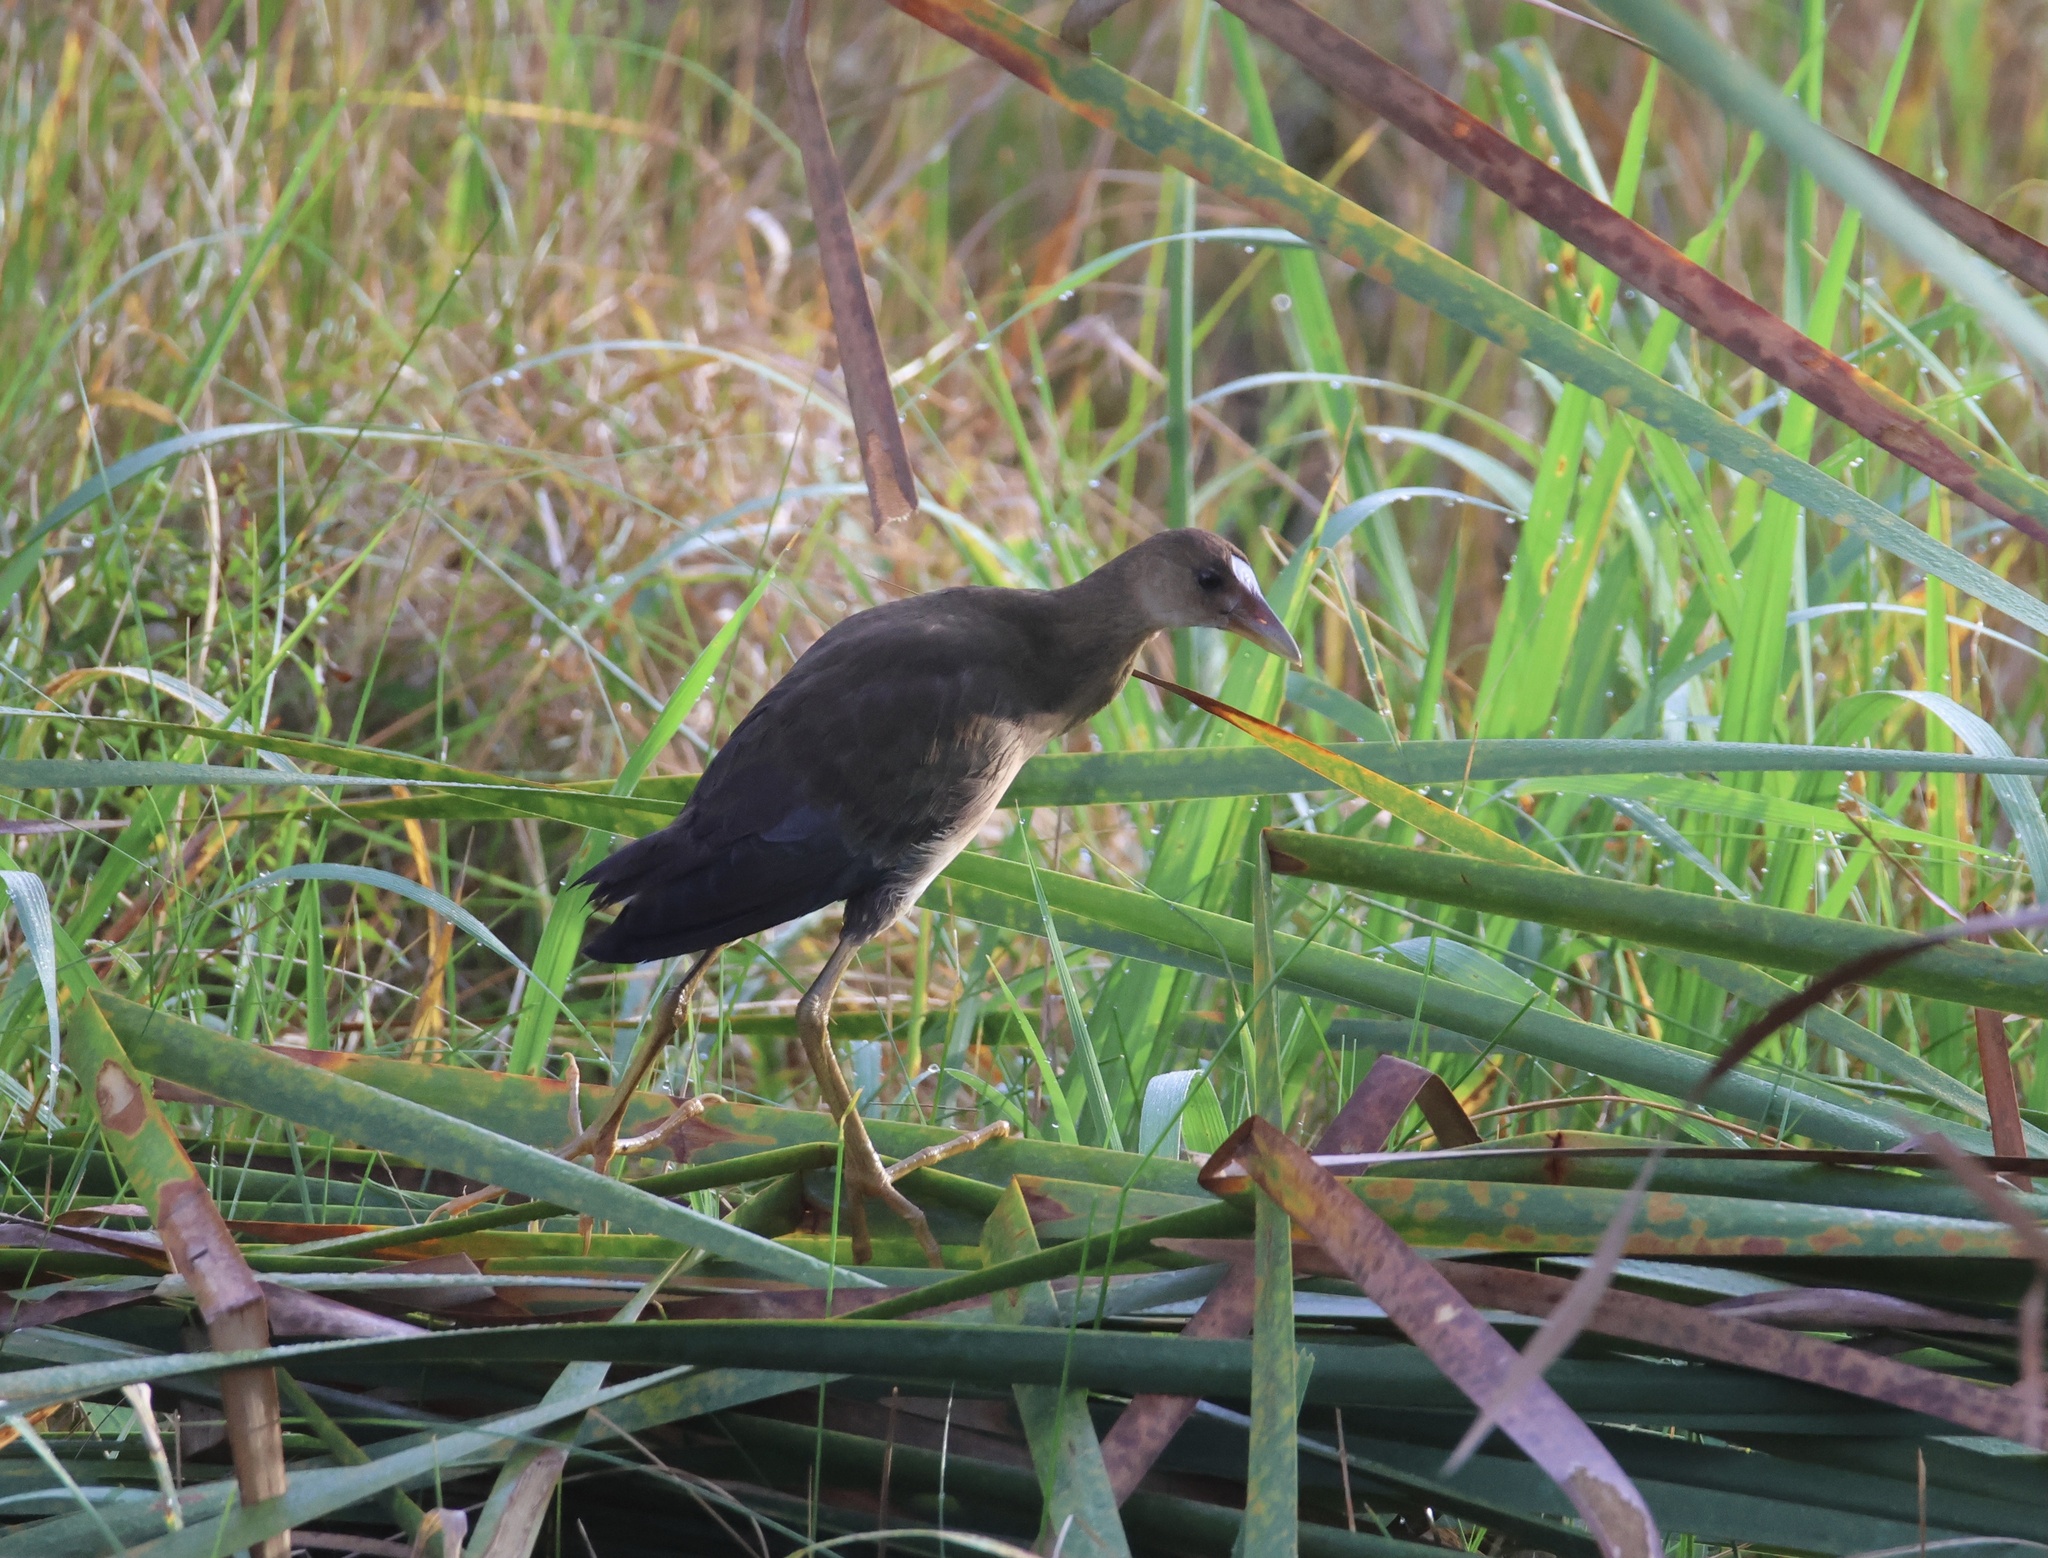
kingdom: Animalia
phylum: Chordata
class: Aves
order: Gruiformes
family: Rallidae
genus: Porphyrio
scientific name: Porphyrio martinica
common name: Purple gallinule
